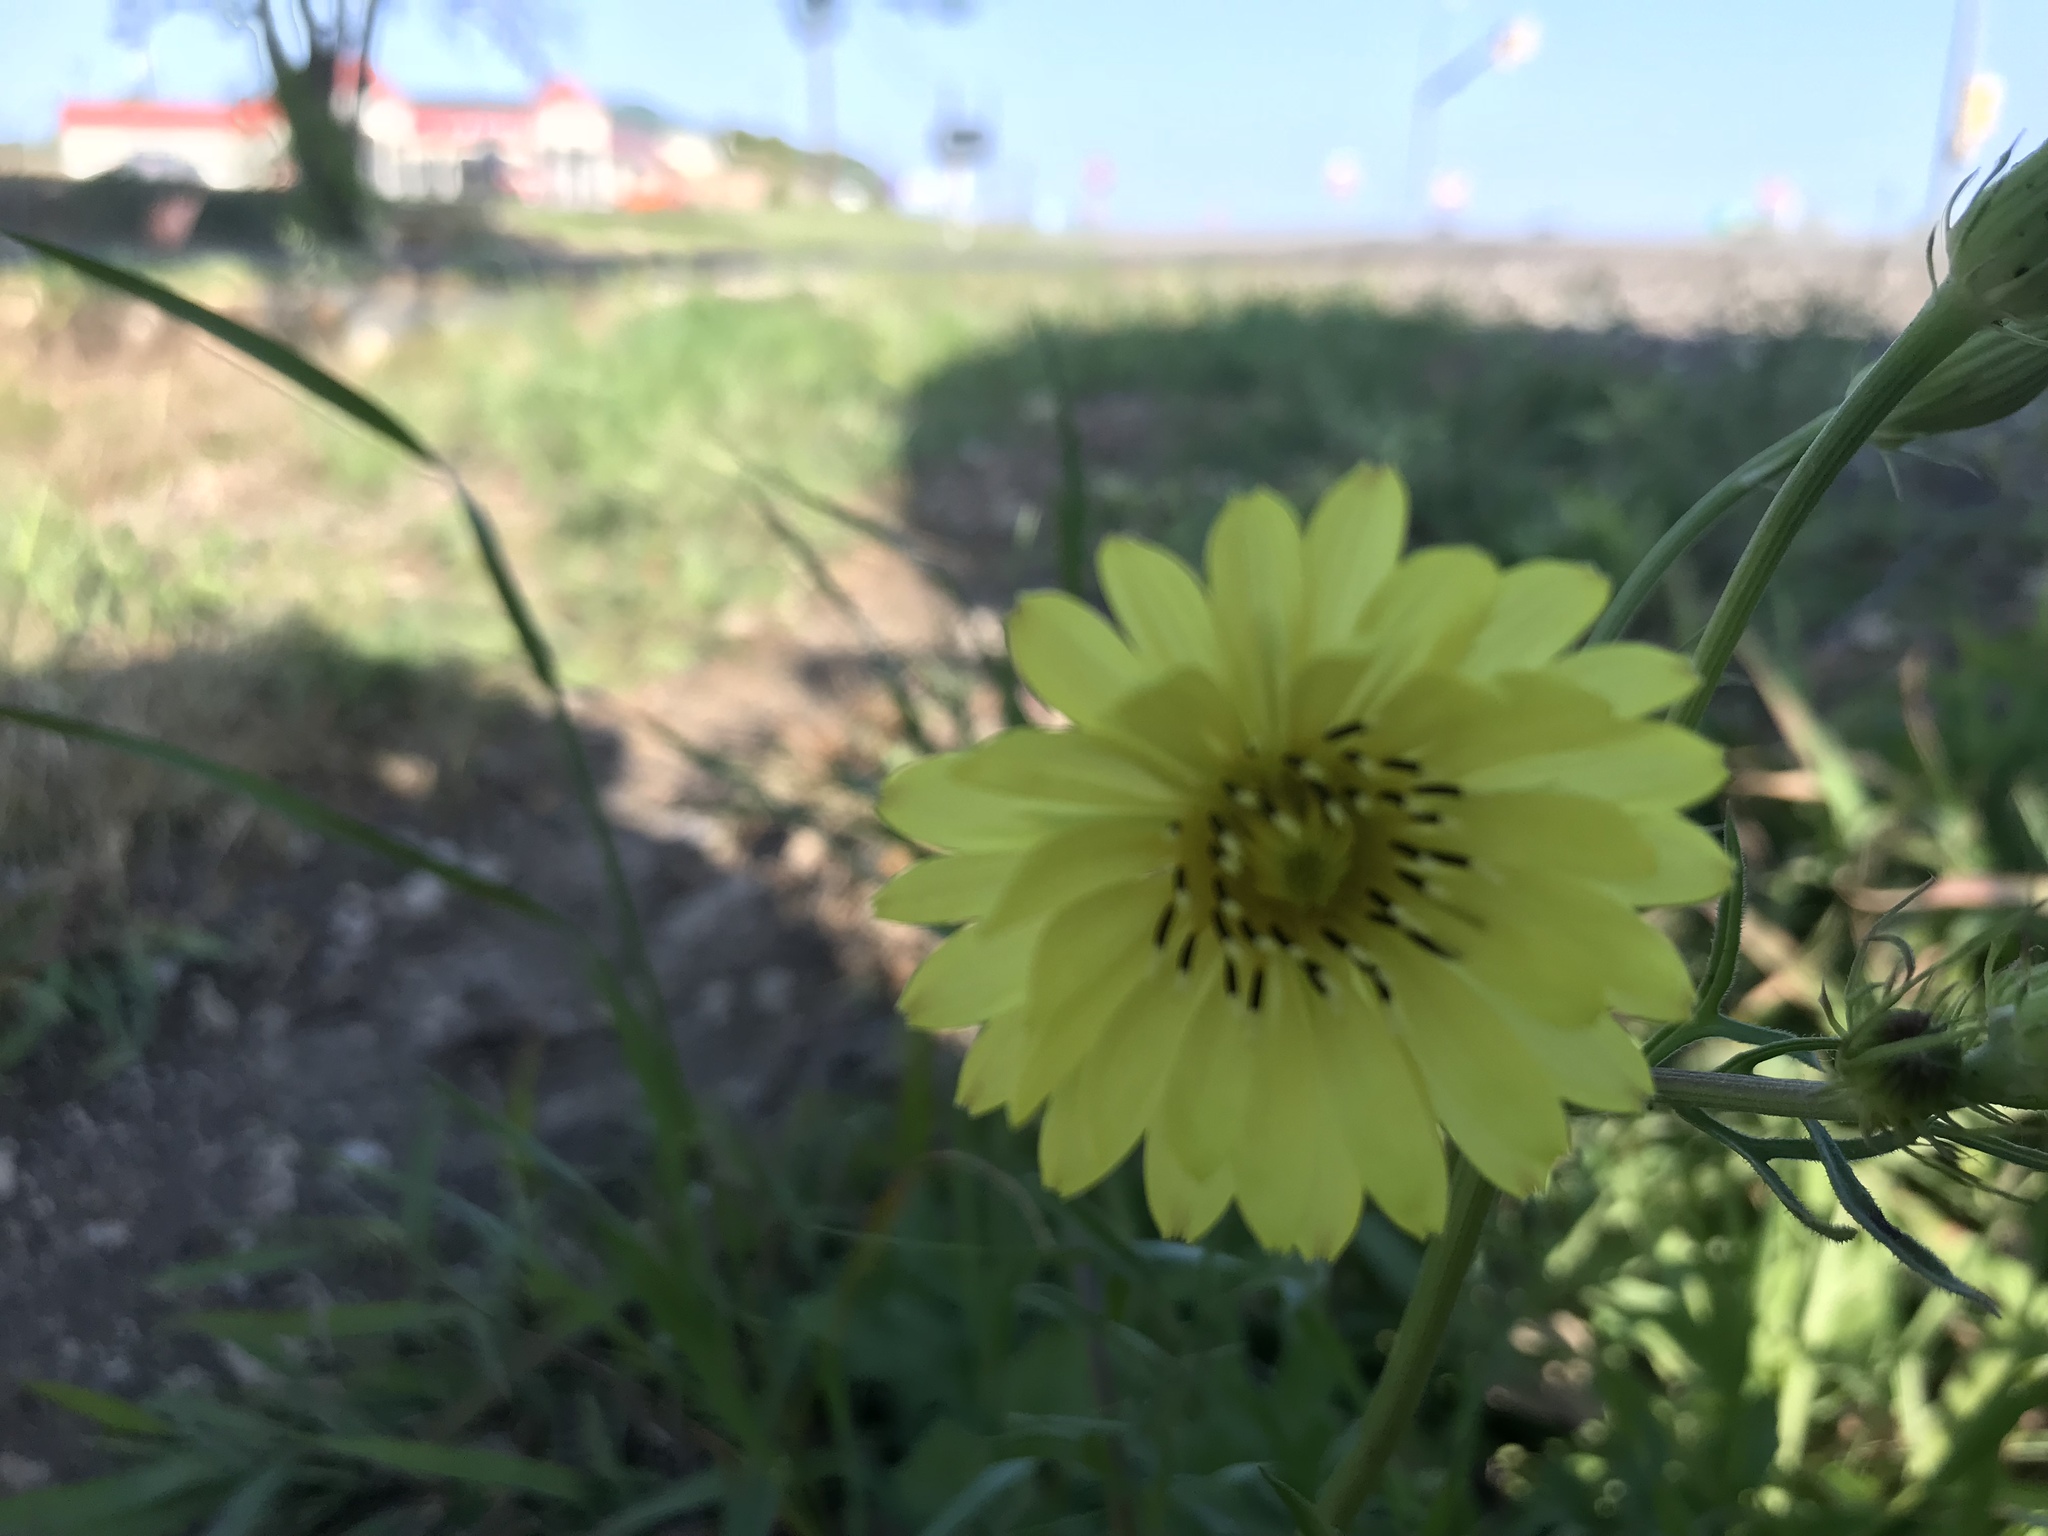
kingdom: Plantae
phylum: Tracheophyta
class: Magnoliopsida
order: Asterales
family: Asteraceae
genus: Pyrrhopappus
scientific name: Pyrrhopappus pauciflorus
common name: Texas false dandelion
